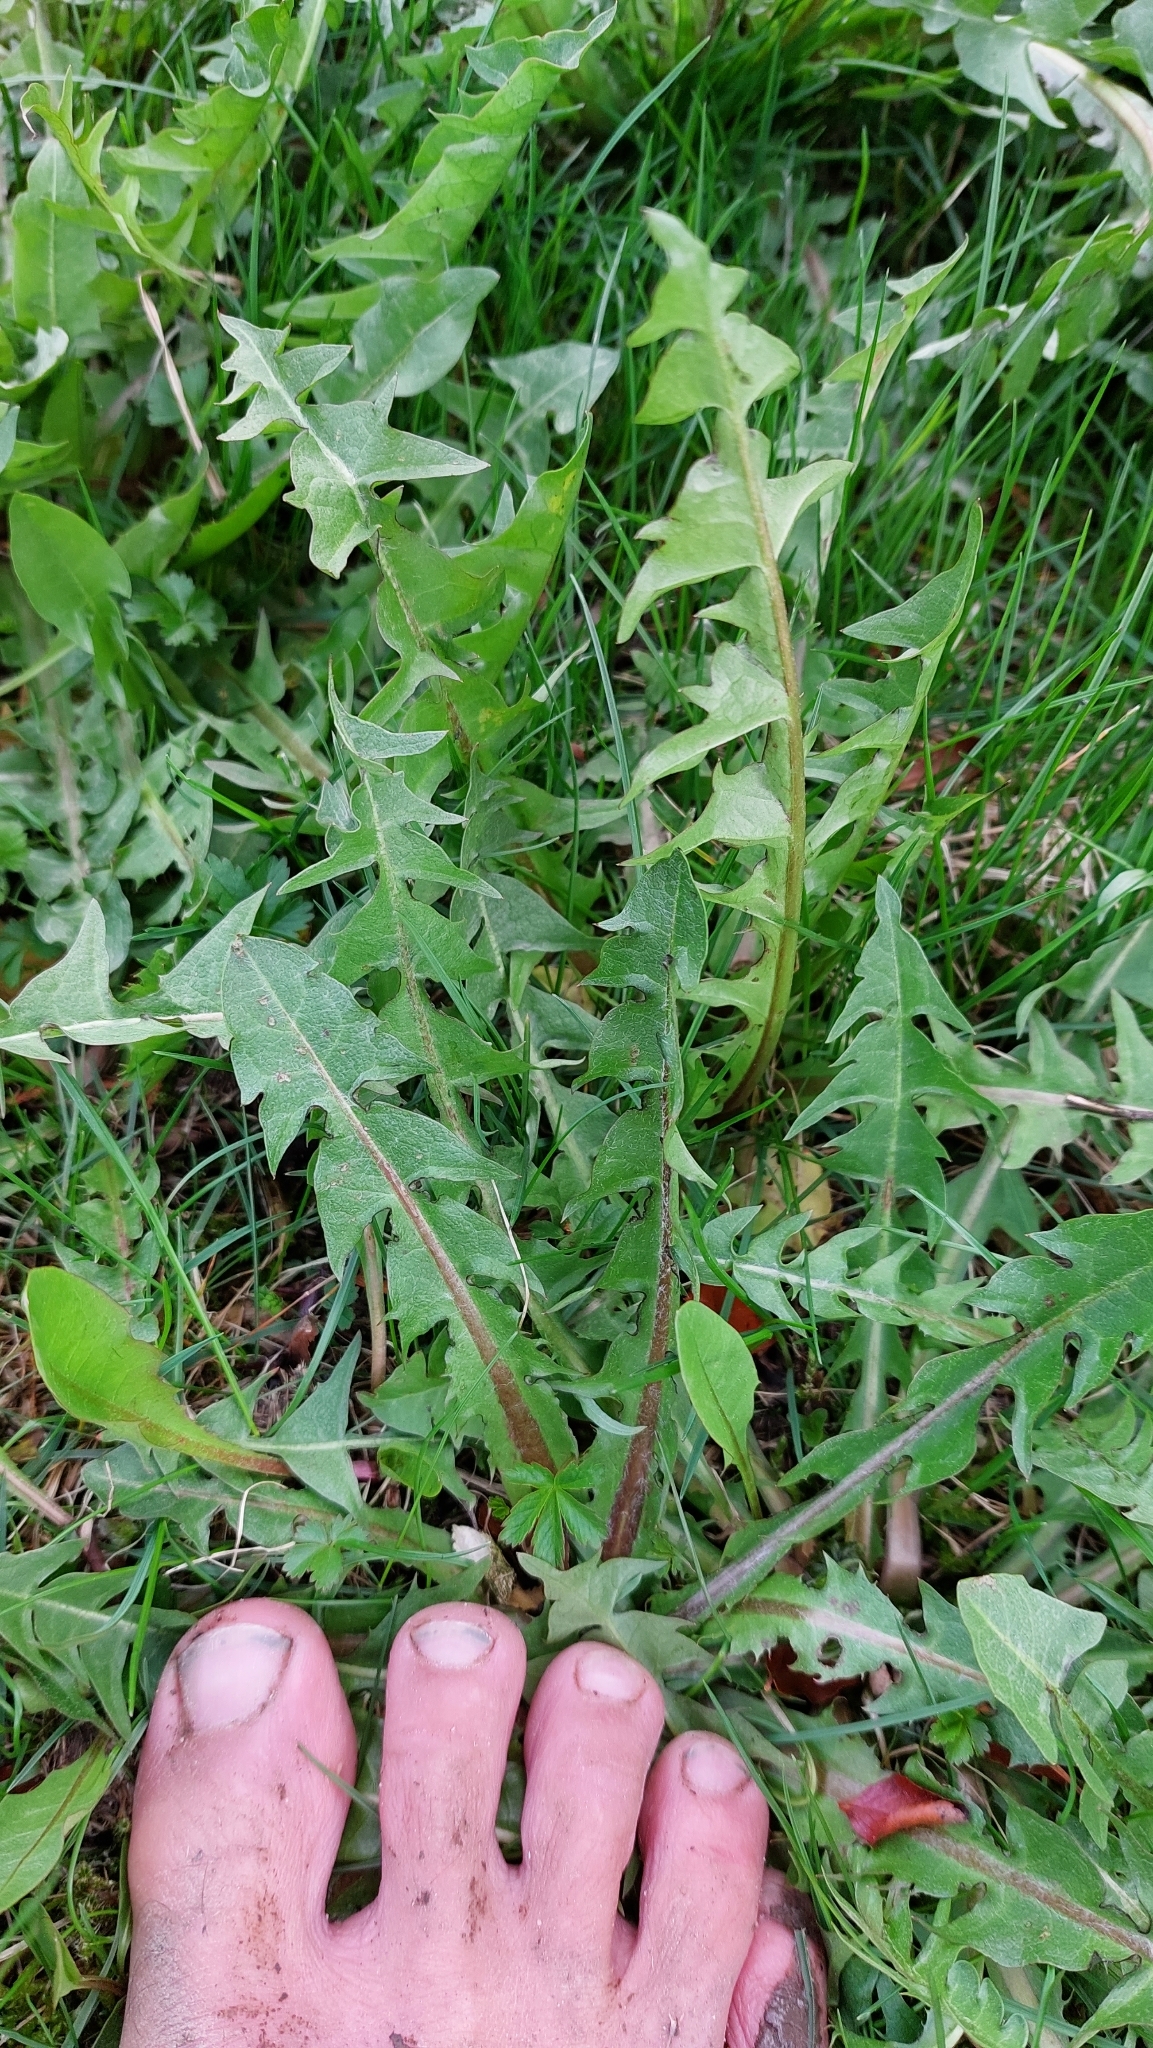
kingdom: Plantae
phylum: Tracheophyta
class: Magnoliopsida
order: Asterales
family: Asteraceae
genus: Taraxacum
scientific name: Taraxacum
